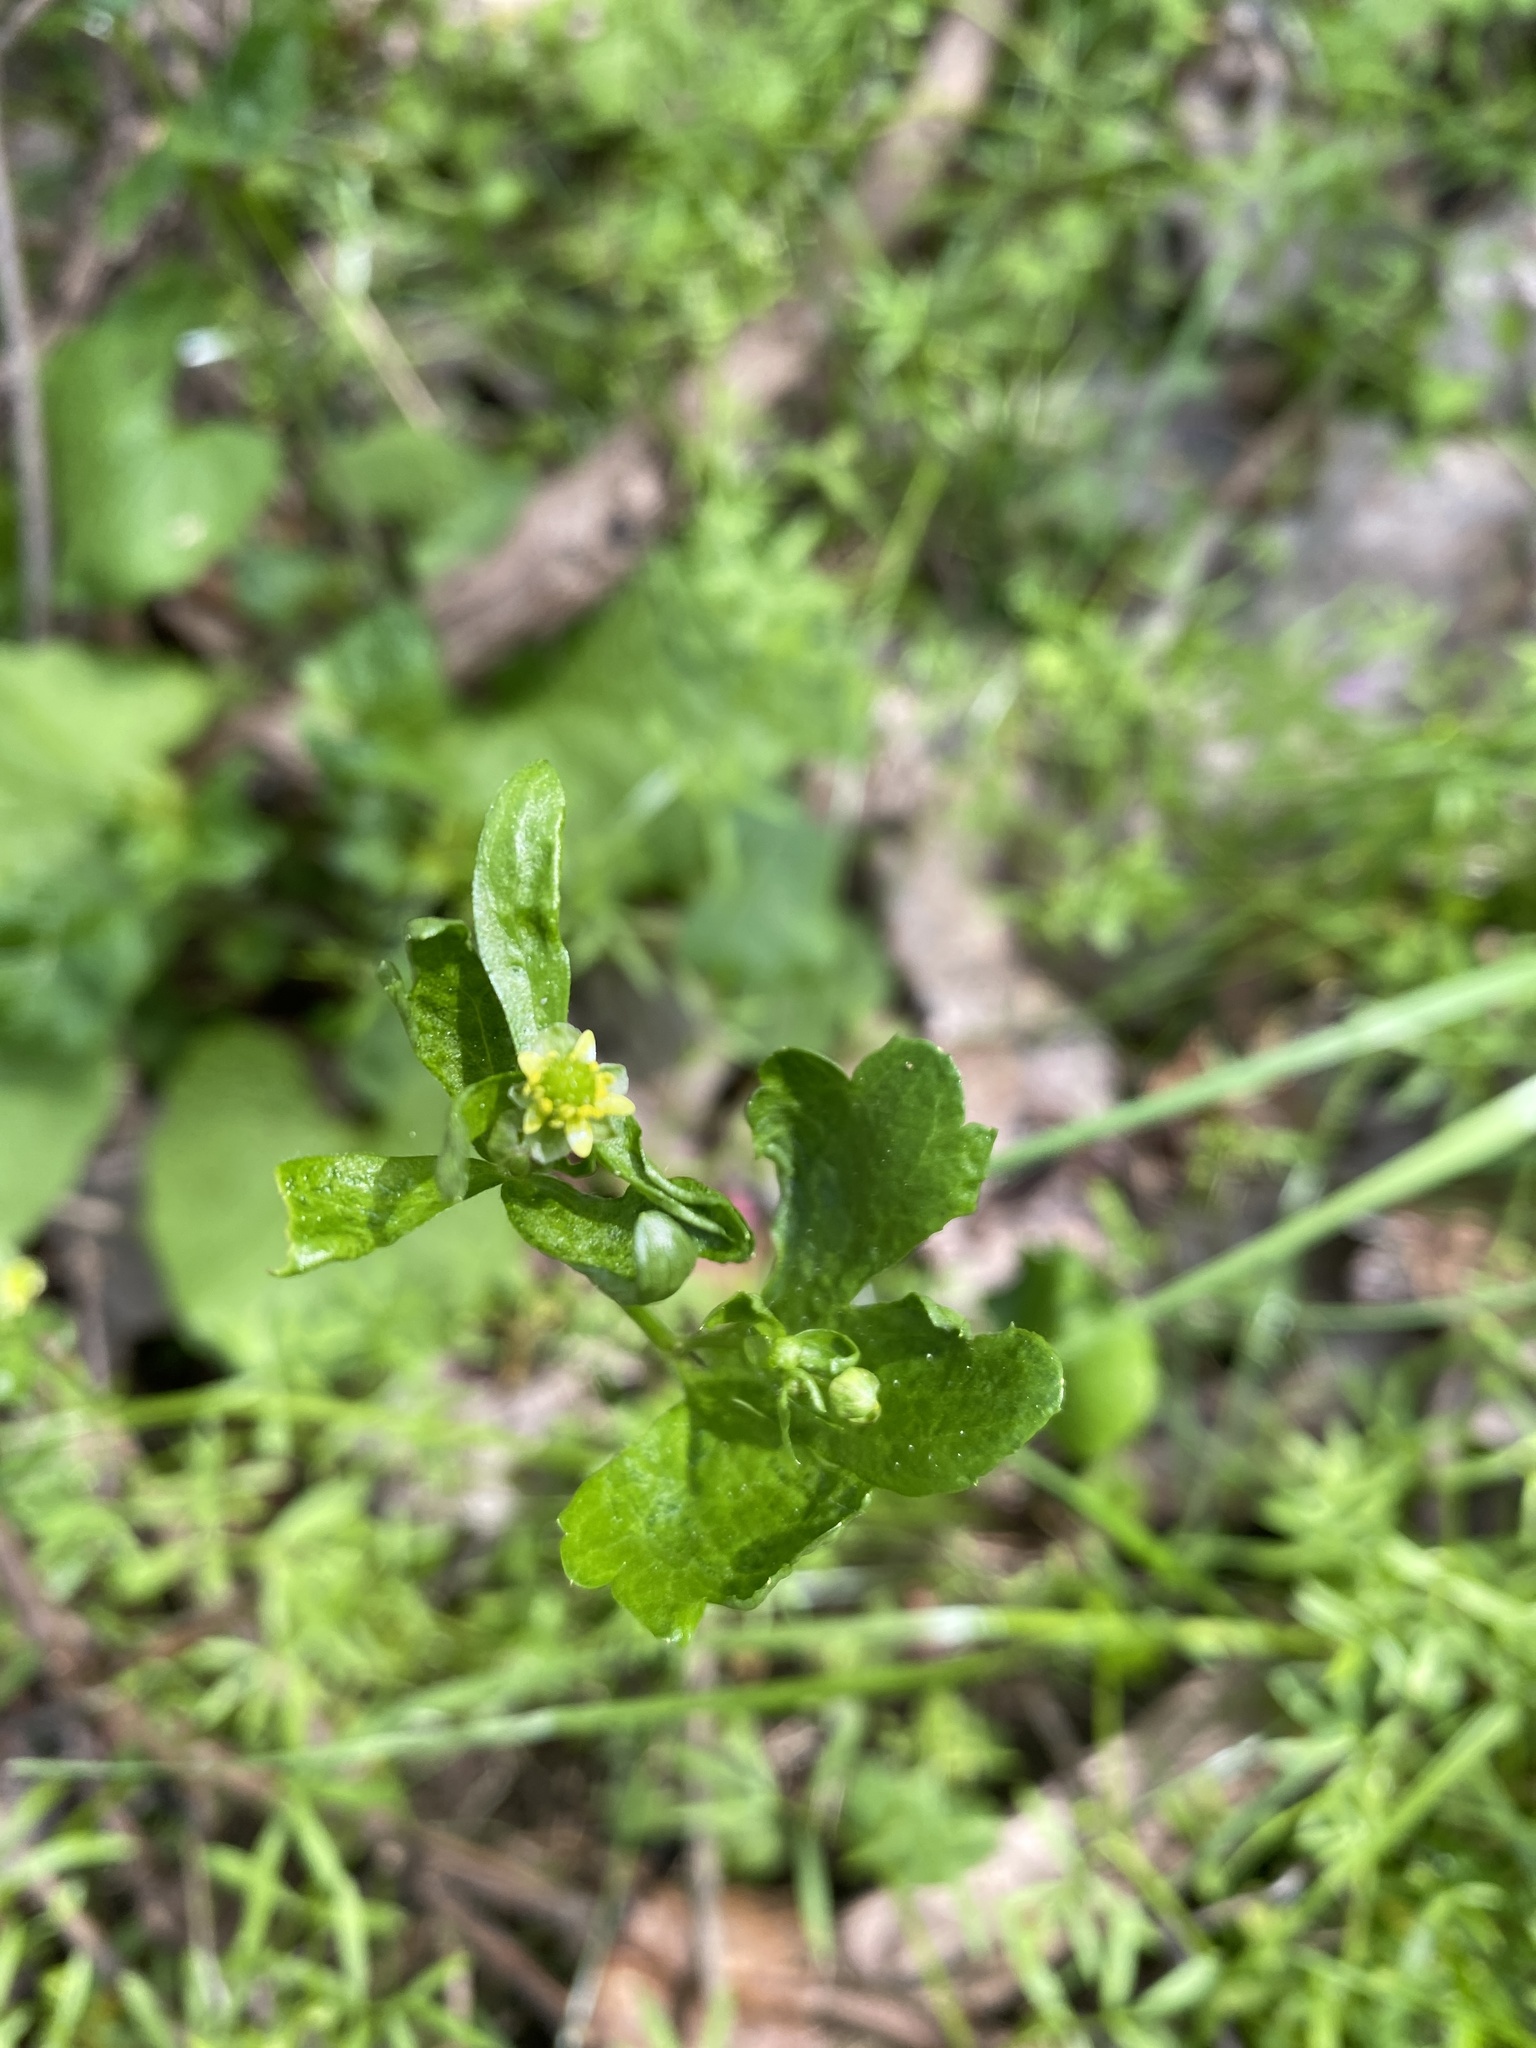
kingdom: Plantae
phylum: Tracheophyta
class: Magnoliopsida
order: Ranunculales
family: Ranunculaceae
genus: Ranunculus
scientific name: Ranunculus abortivus
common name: Early wood buttercup
